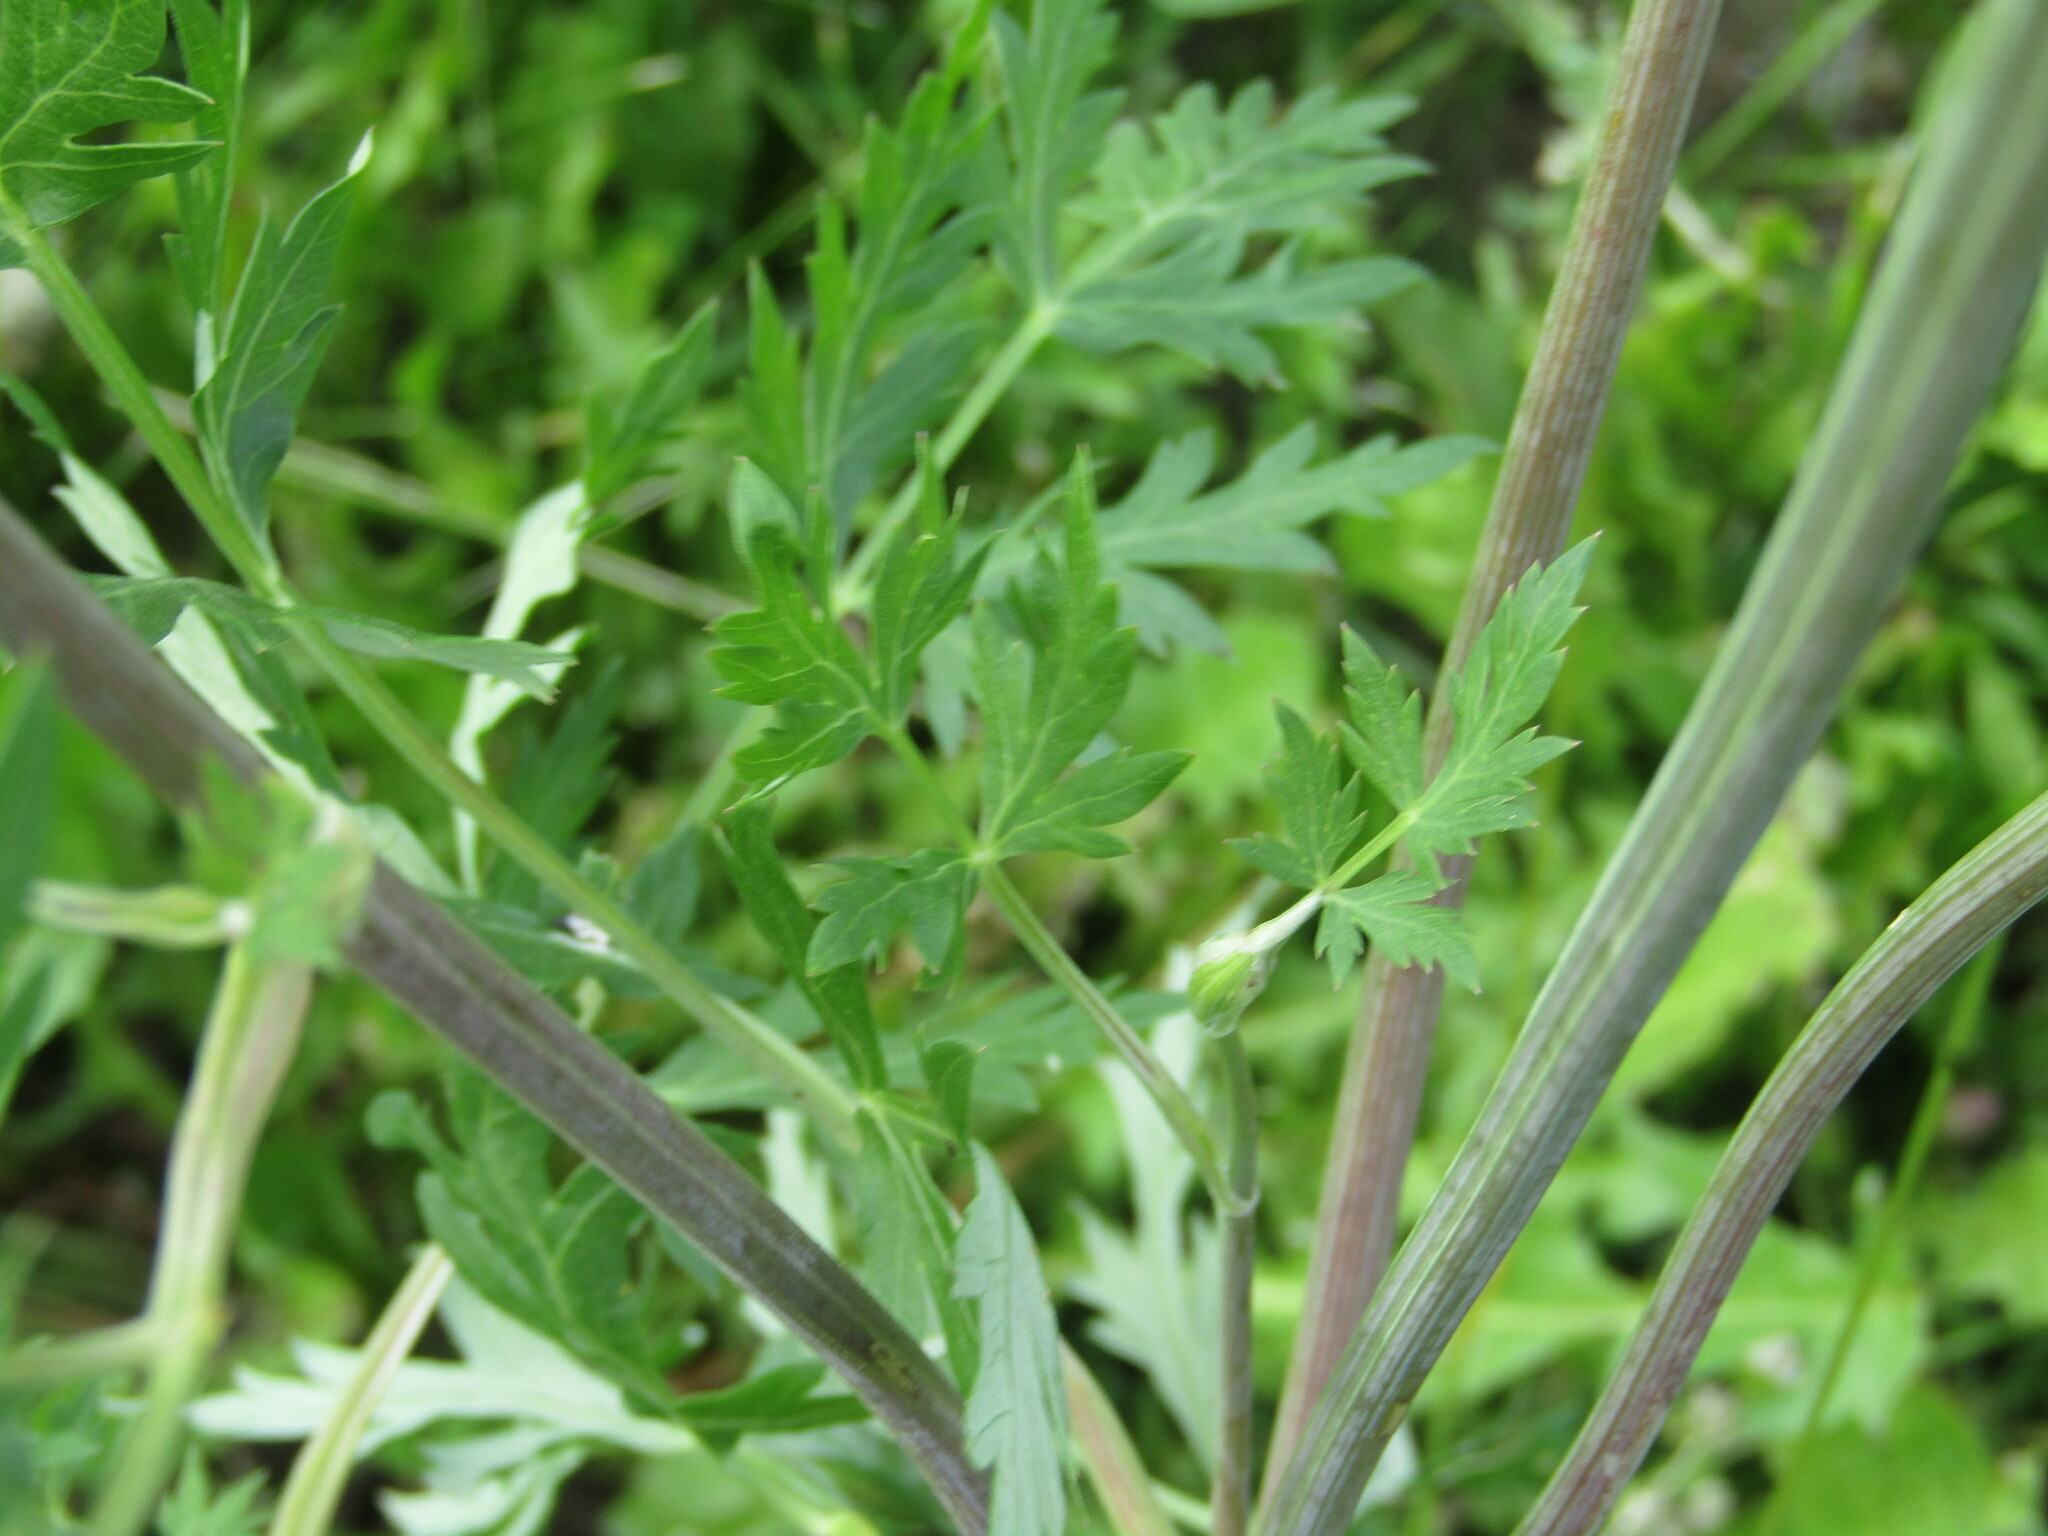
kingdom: Plantae
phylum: Tracheophyta
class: Magnoliopsida
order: Apiales
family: Apiaceae
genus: Seseli
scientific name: Seseli libanotis
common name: Mooncarrot
